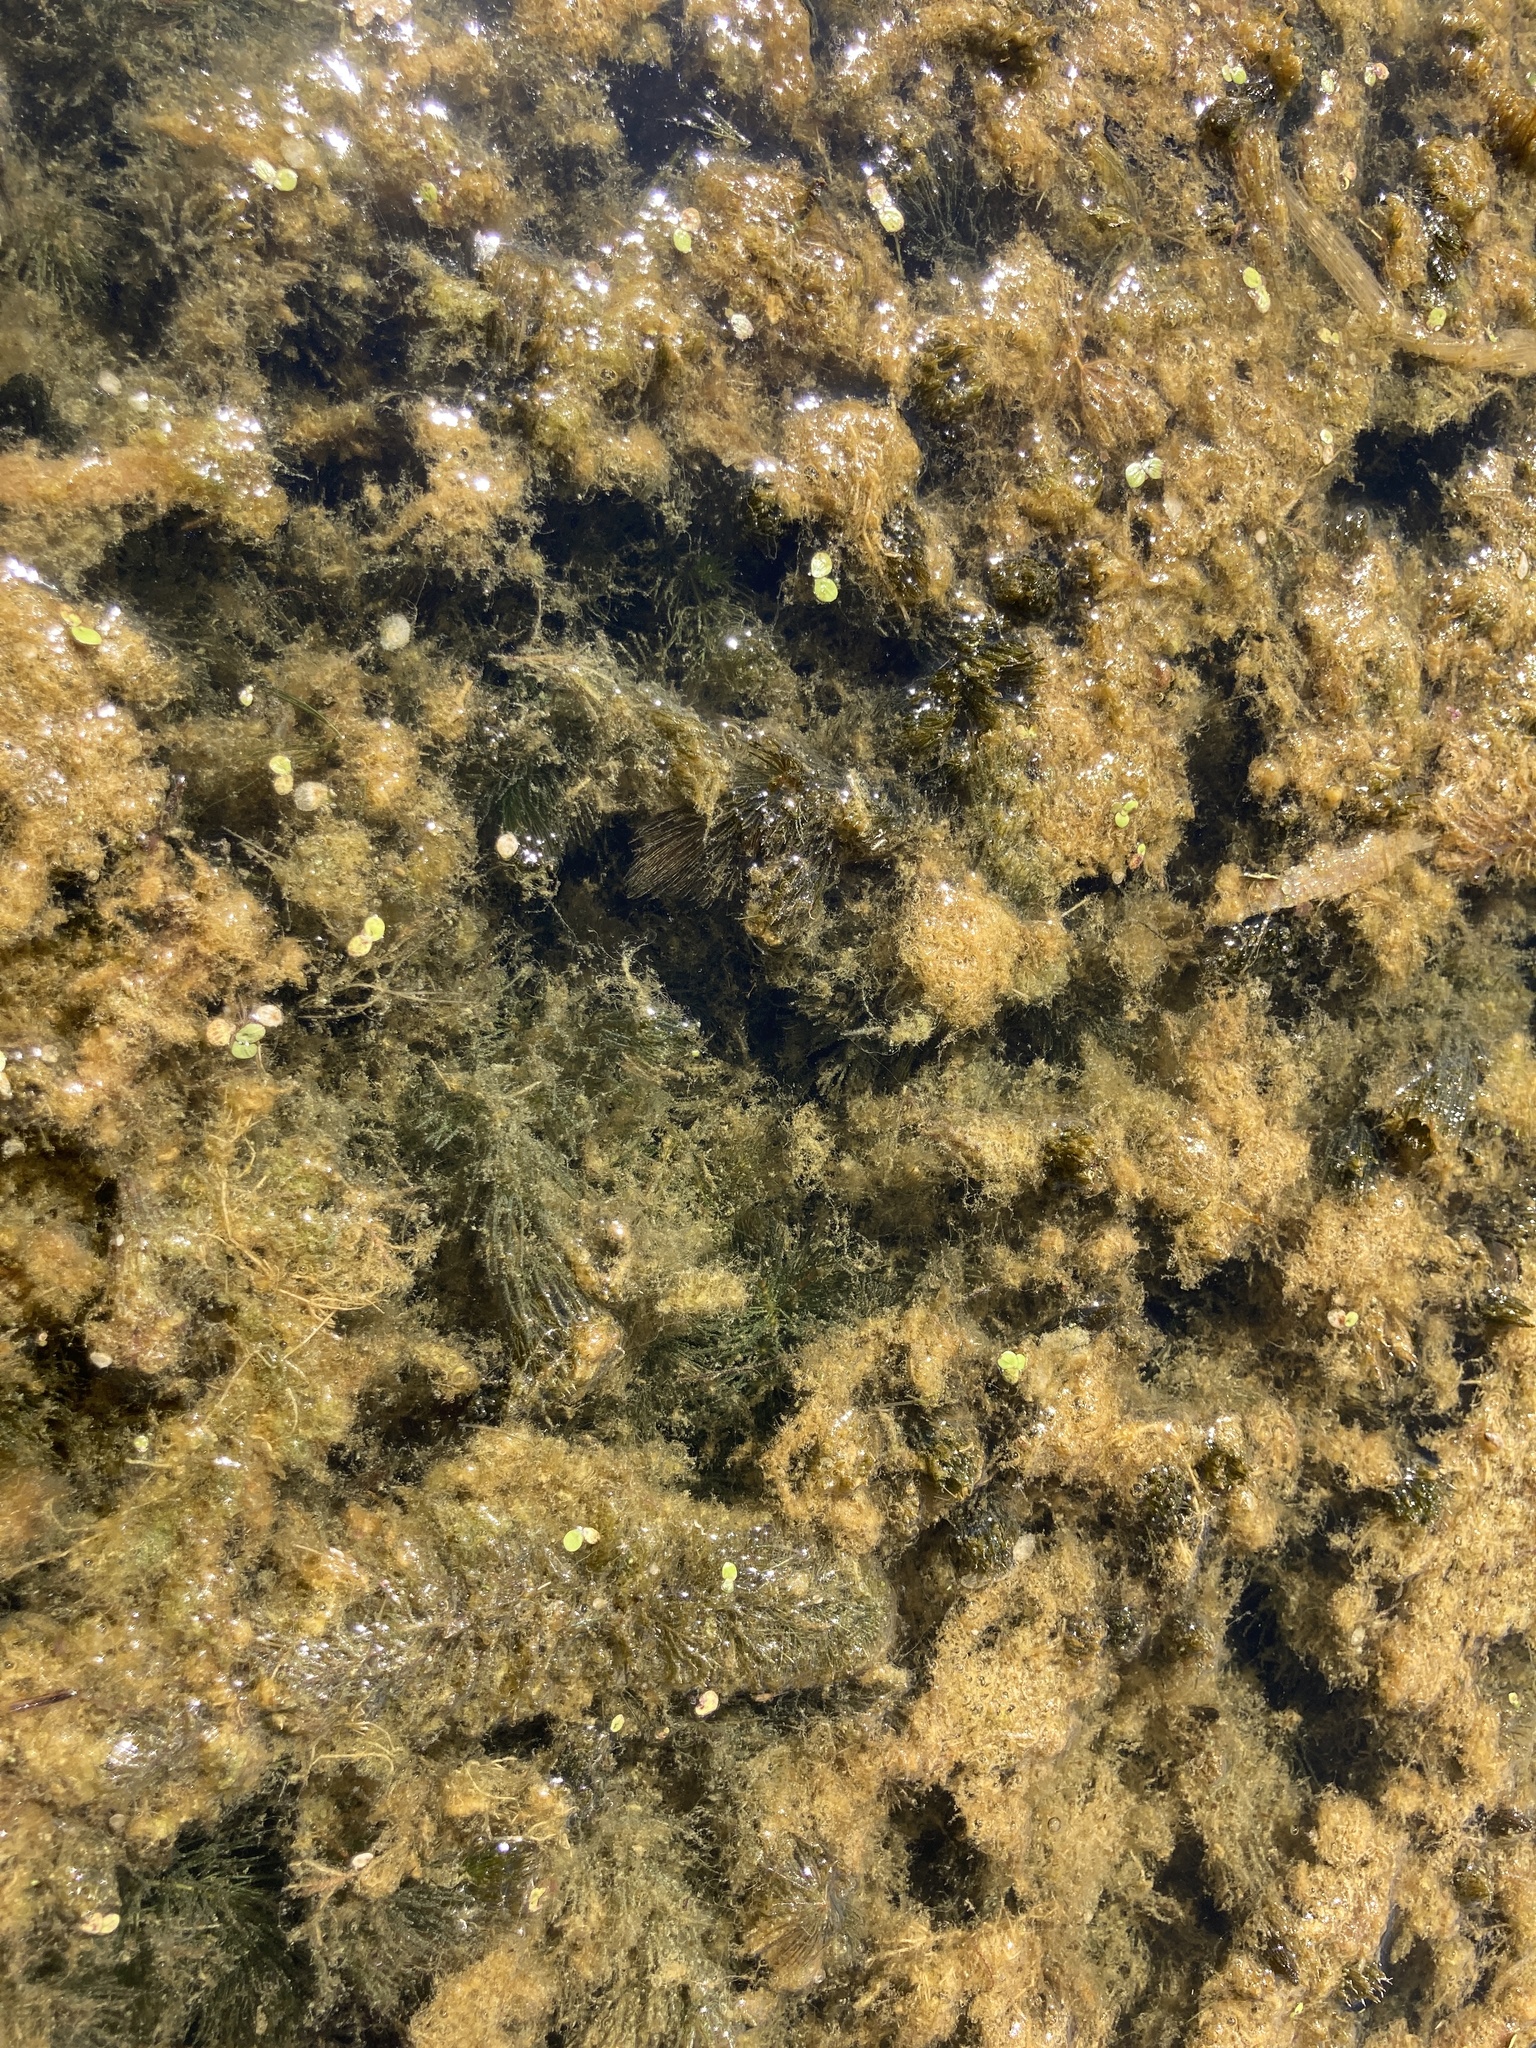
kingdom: Plantae
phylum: Tracheophyta
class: Magnoliopsida
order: Ceratophyllales
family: Ceratophyllaceae
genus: Ceratophyllum
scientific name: Ceratophyllum demersum
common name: Rigid hornwort
